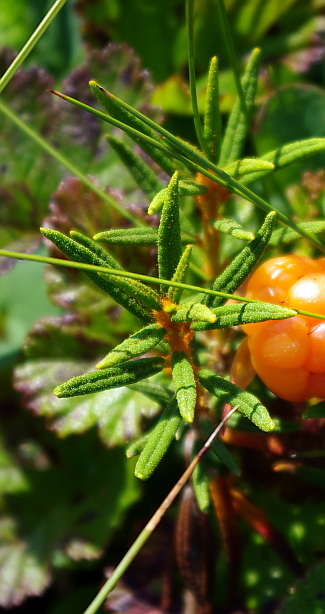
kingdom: Plantae
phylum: Tracheophyta
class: Magnoliopsida
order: Ericales
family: Ericaceae
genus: Rhododendron
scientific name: Rhododendron tomentosum
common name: Marsh labrador tea
